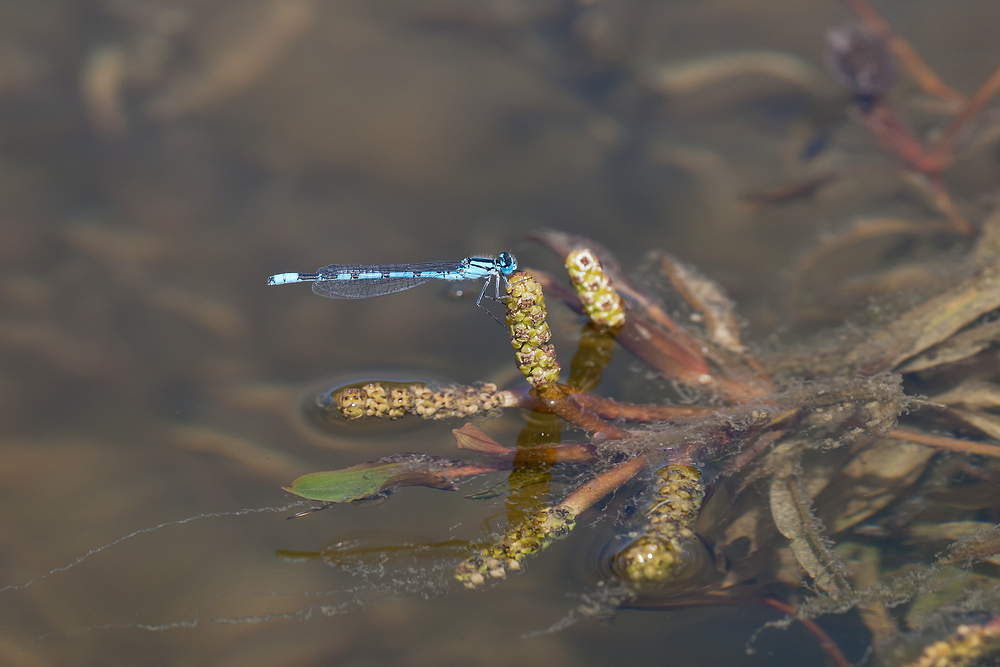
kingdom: Animalia
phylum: Arthropoda
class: Insecta
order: Odonata
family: Coenagrionidae
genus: Enallagma
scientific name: Enallagma cyathigerum
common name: Common blue damselfly
